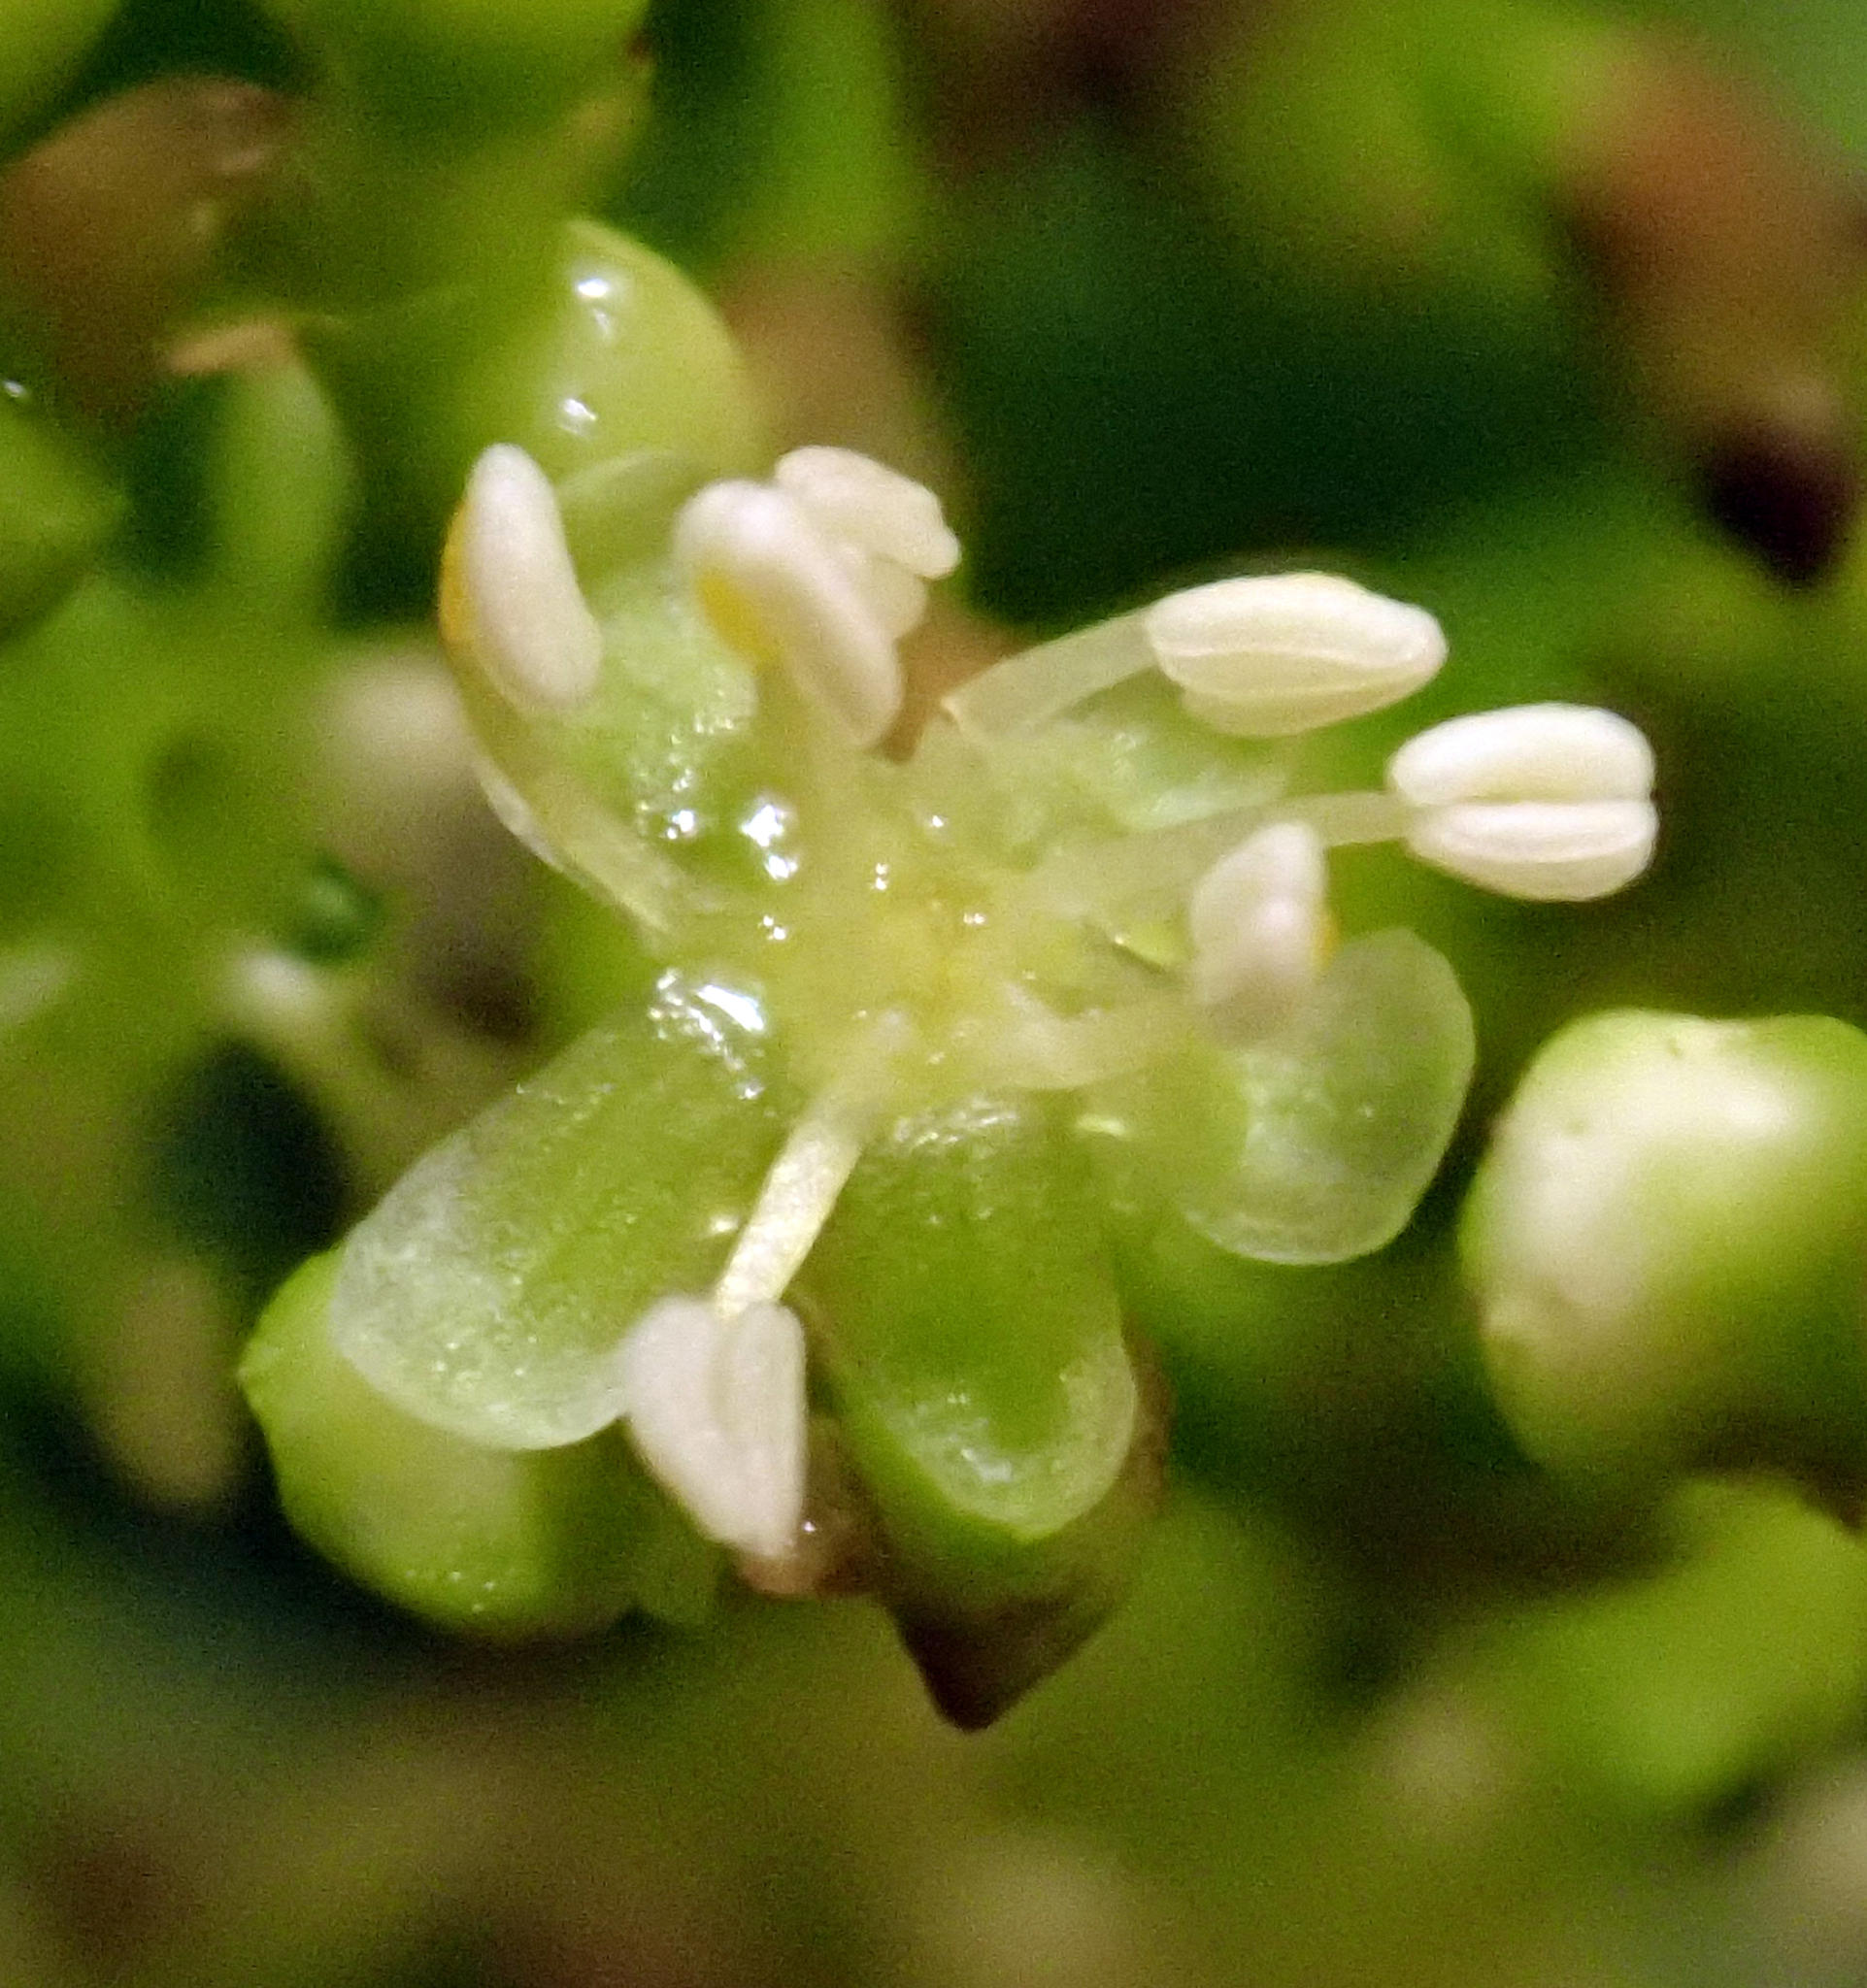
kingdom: Plantae
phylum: Tracheophyta
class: Magnoliopsida
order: Caryophyllales
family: Polygonaceae
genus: Muehlenbeckia
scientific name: Muehlenbeckia australis
